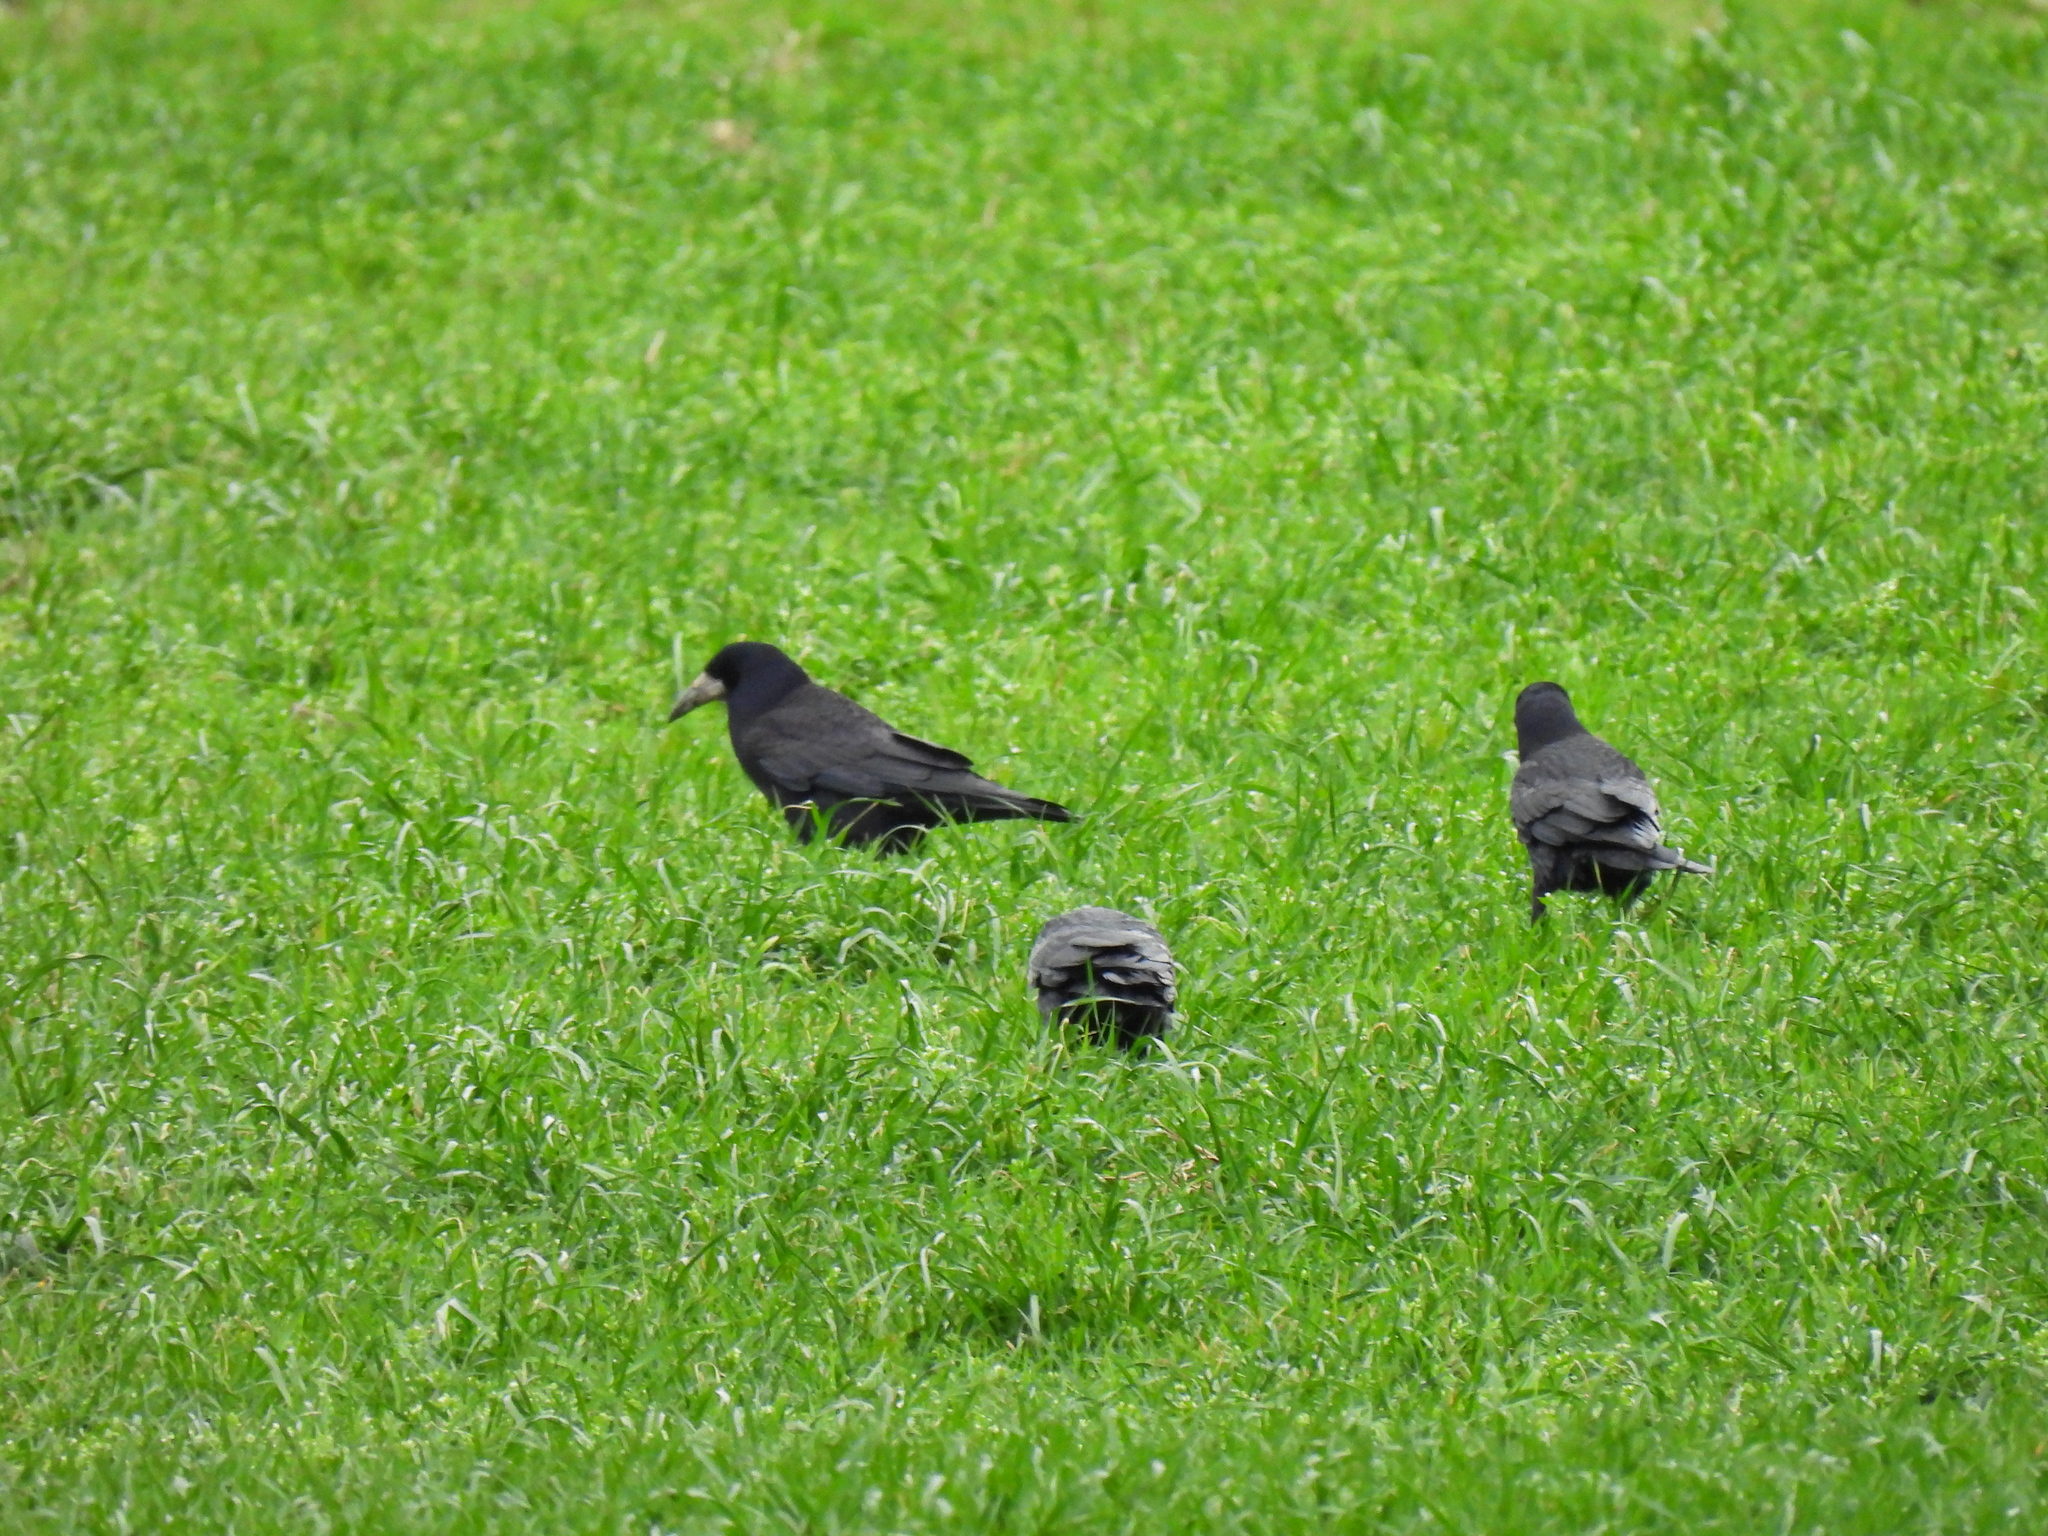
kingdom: Animalia
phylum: Chordata
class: Aves
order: Passeriformes
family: Corvidae
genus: Corvus
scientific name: Corvus frugilegus
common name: Rook
